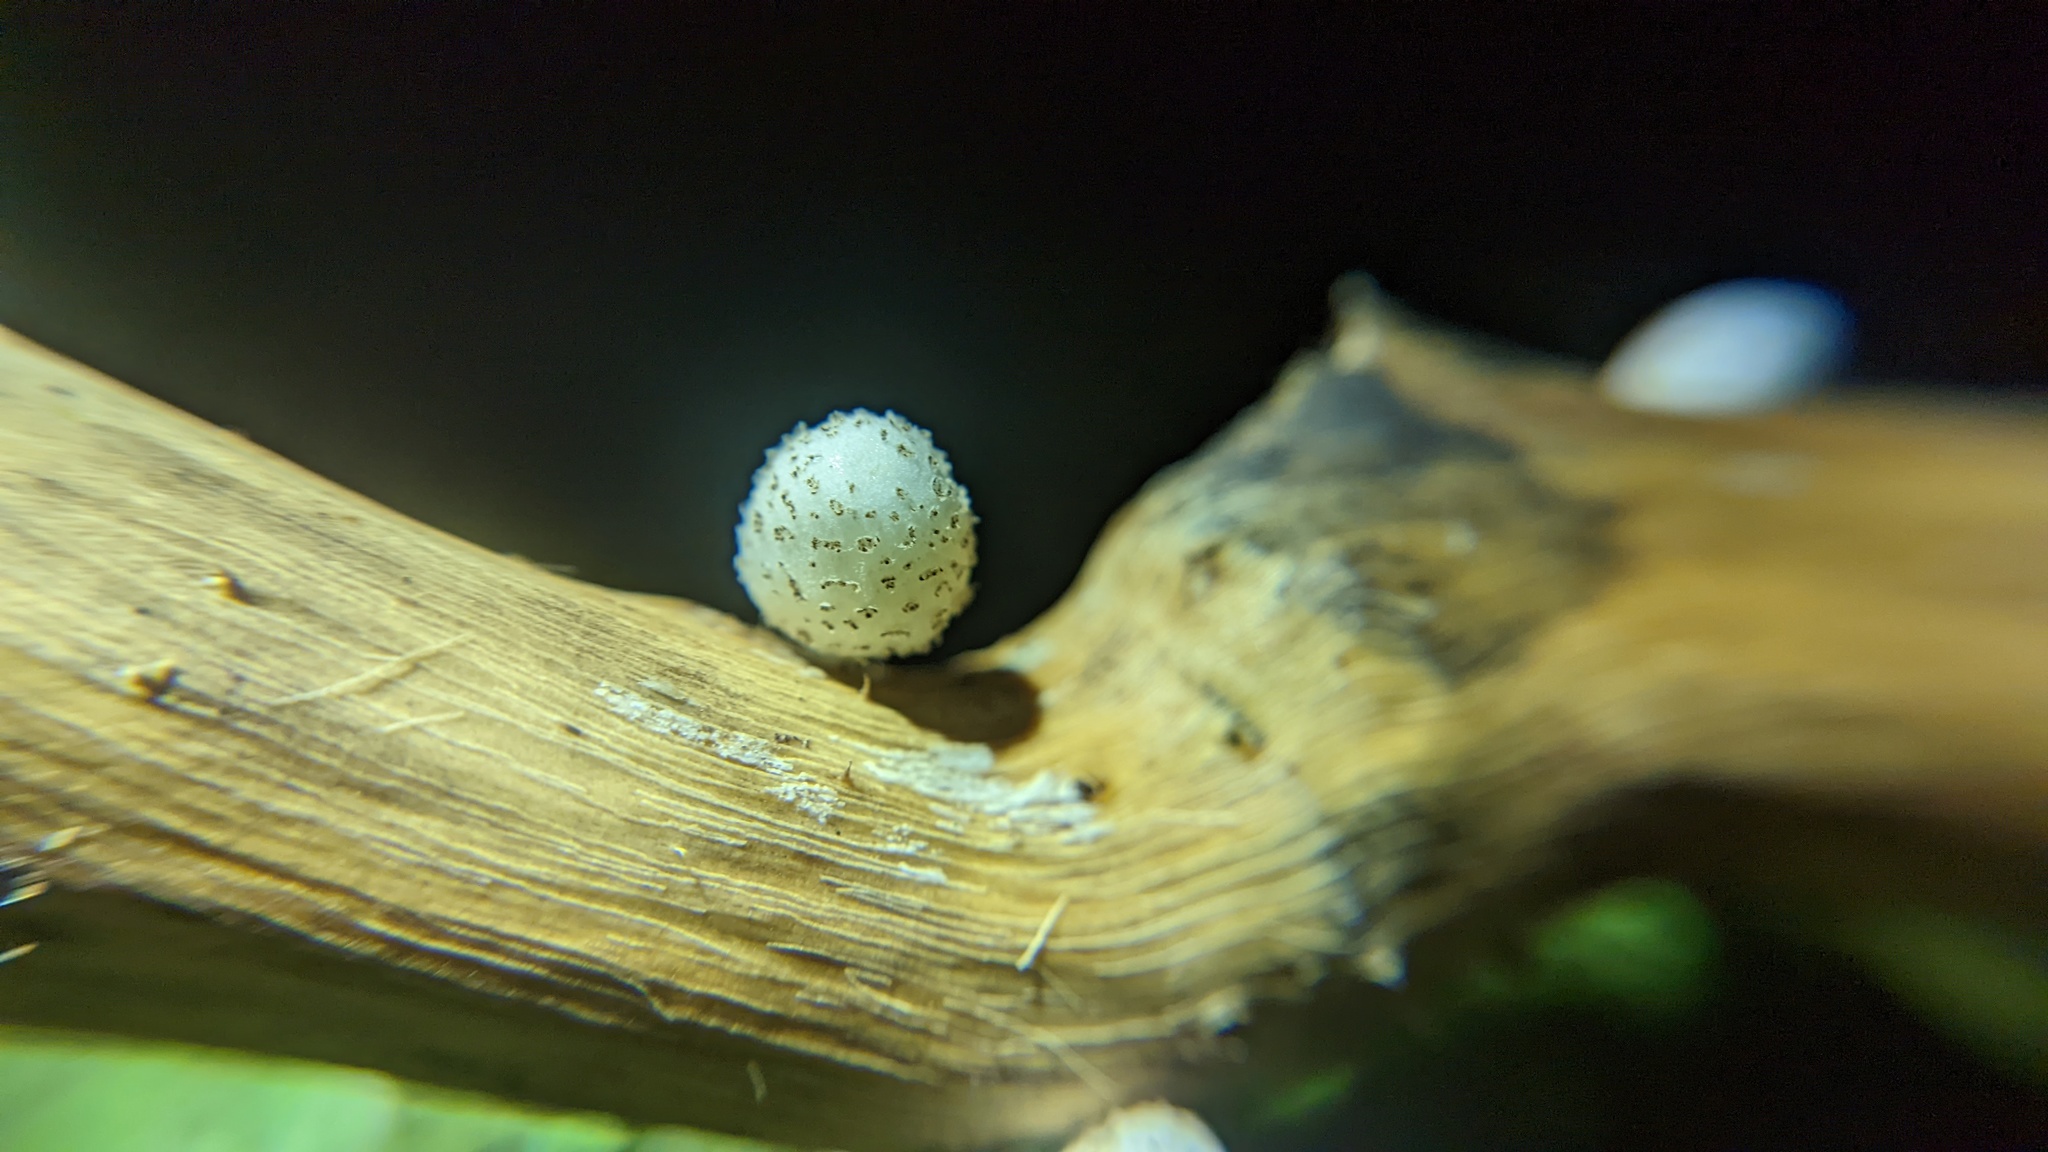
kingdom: Fungi
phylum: Basidiomycota
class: Agaricomycetes
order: Agaricales
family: Psathyrellaceae
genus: Coprinopsis
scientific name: Coprinopsis
